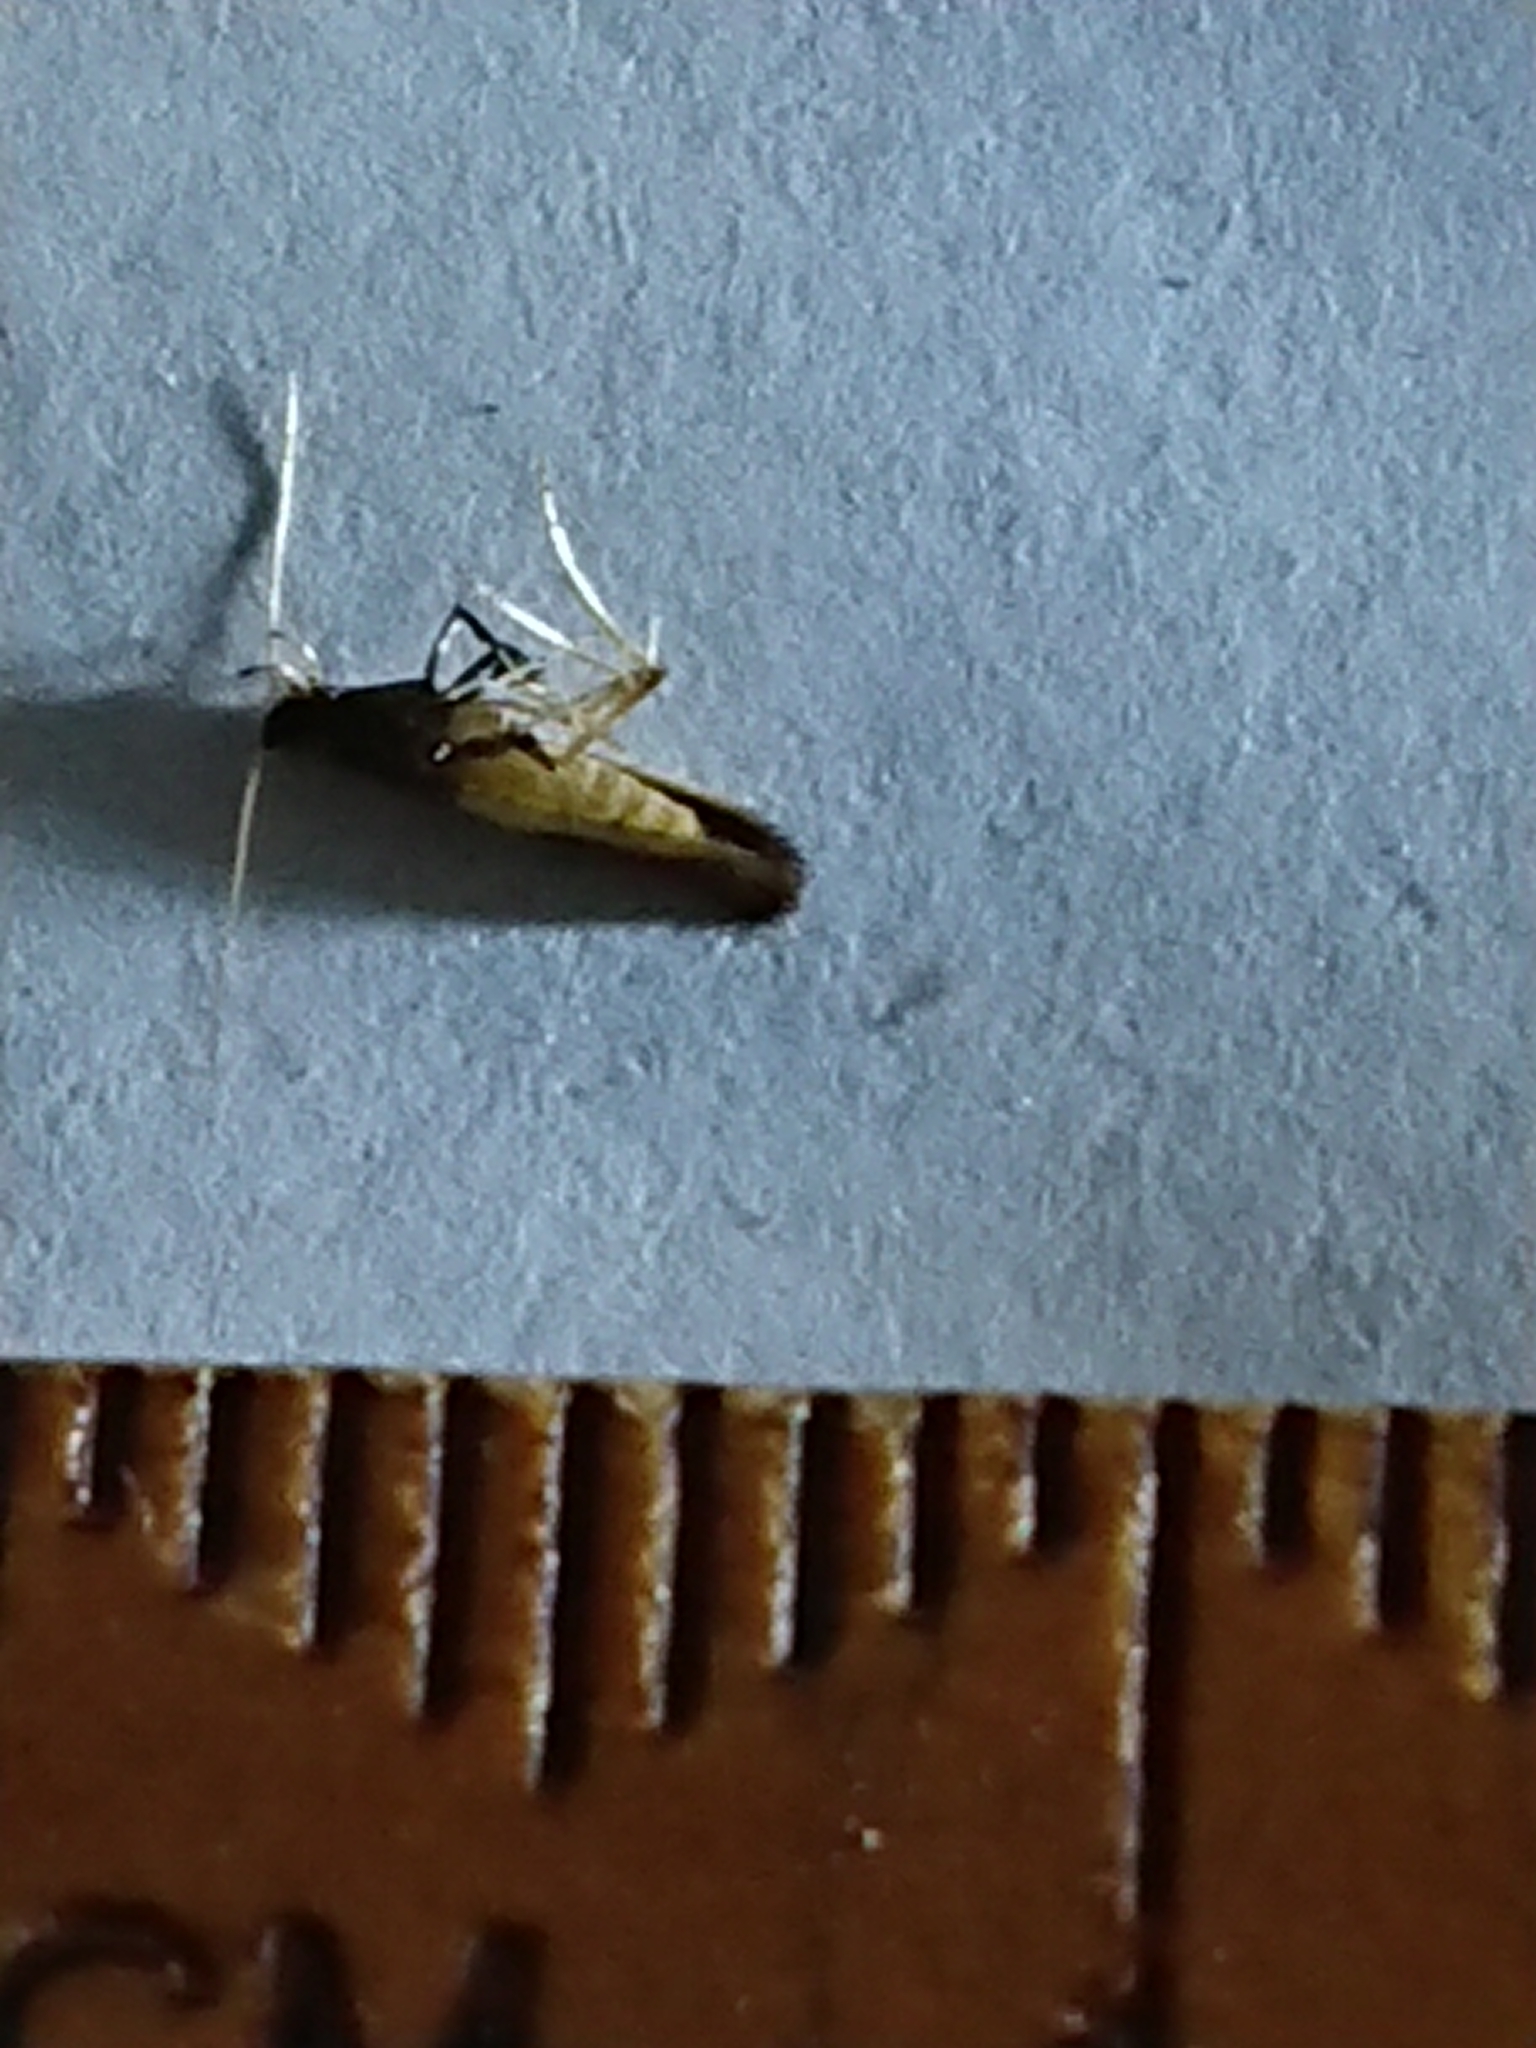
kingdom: Animalia
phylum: Arthropoda
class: Insecta
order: Lepidoptera
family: Gracillariidae
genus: Caloptilia
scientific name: Caloptilia azaleella
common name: Azalea leafminer
